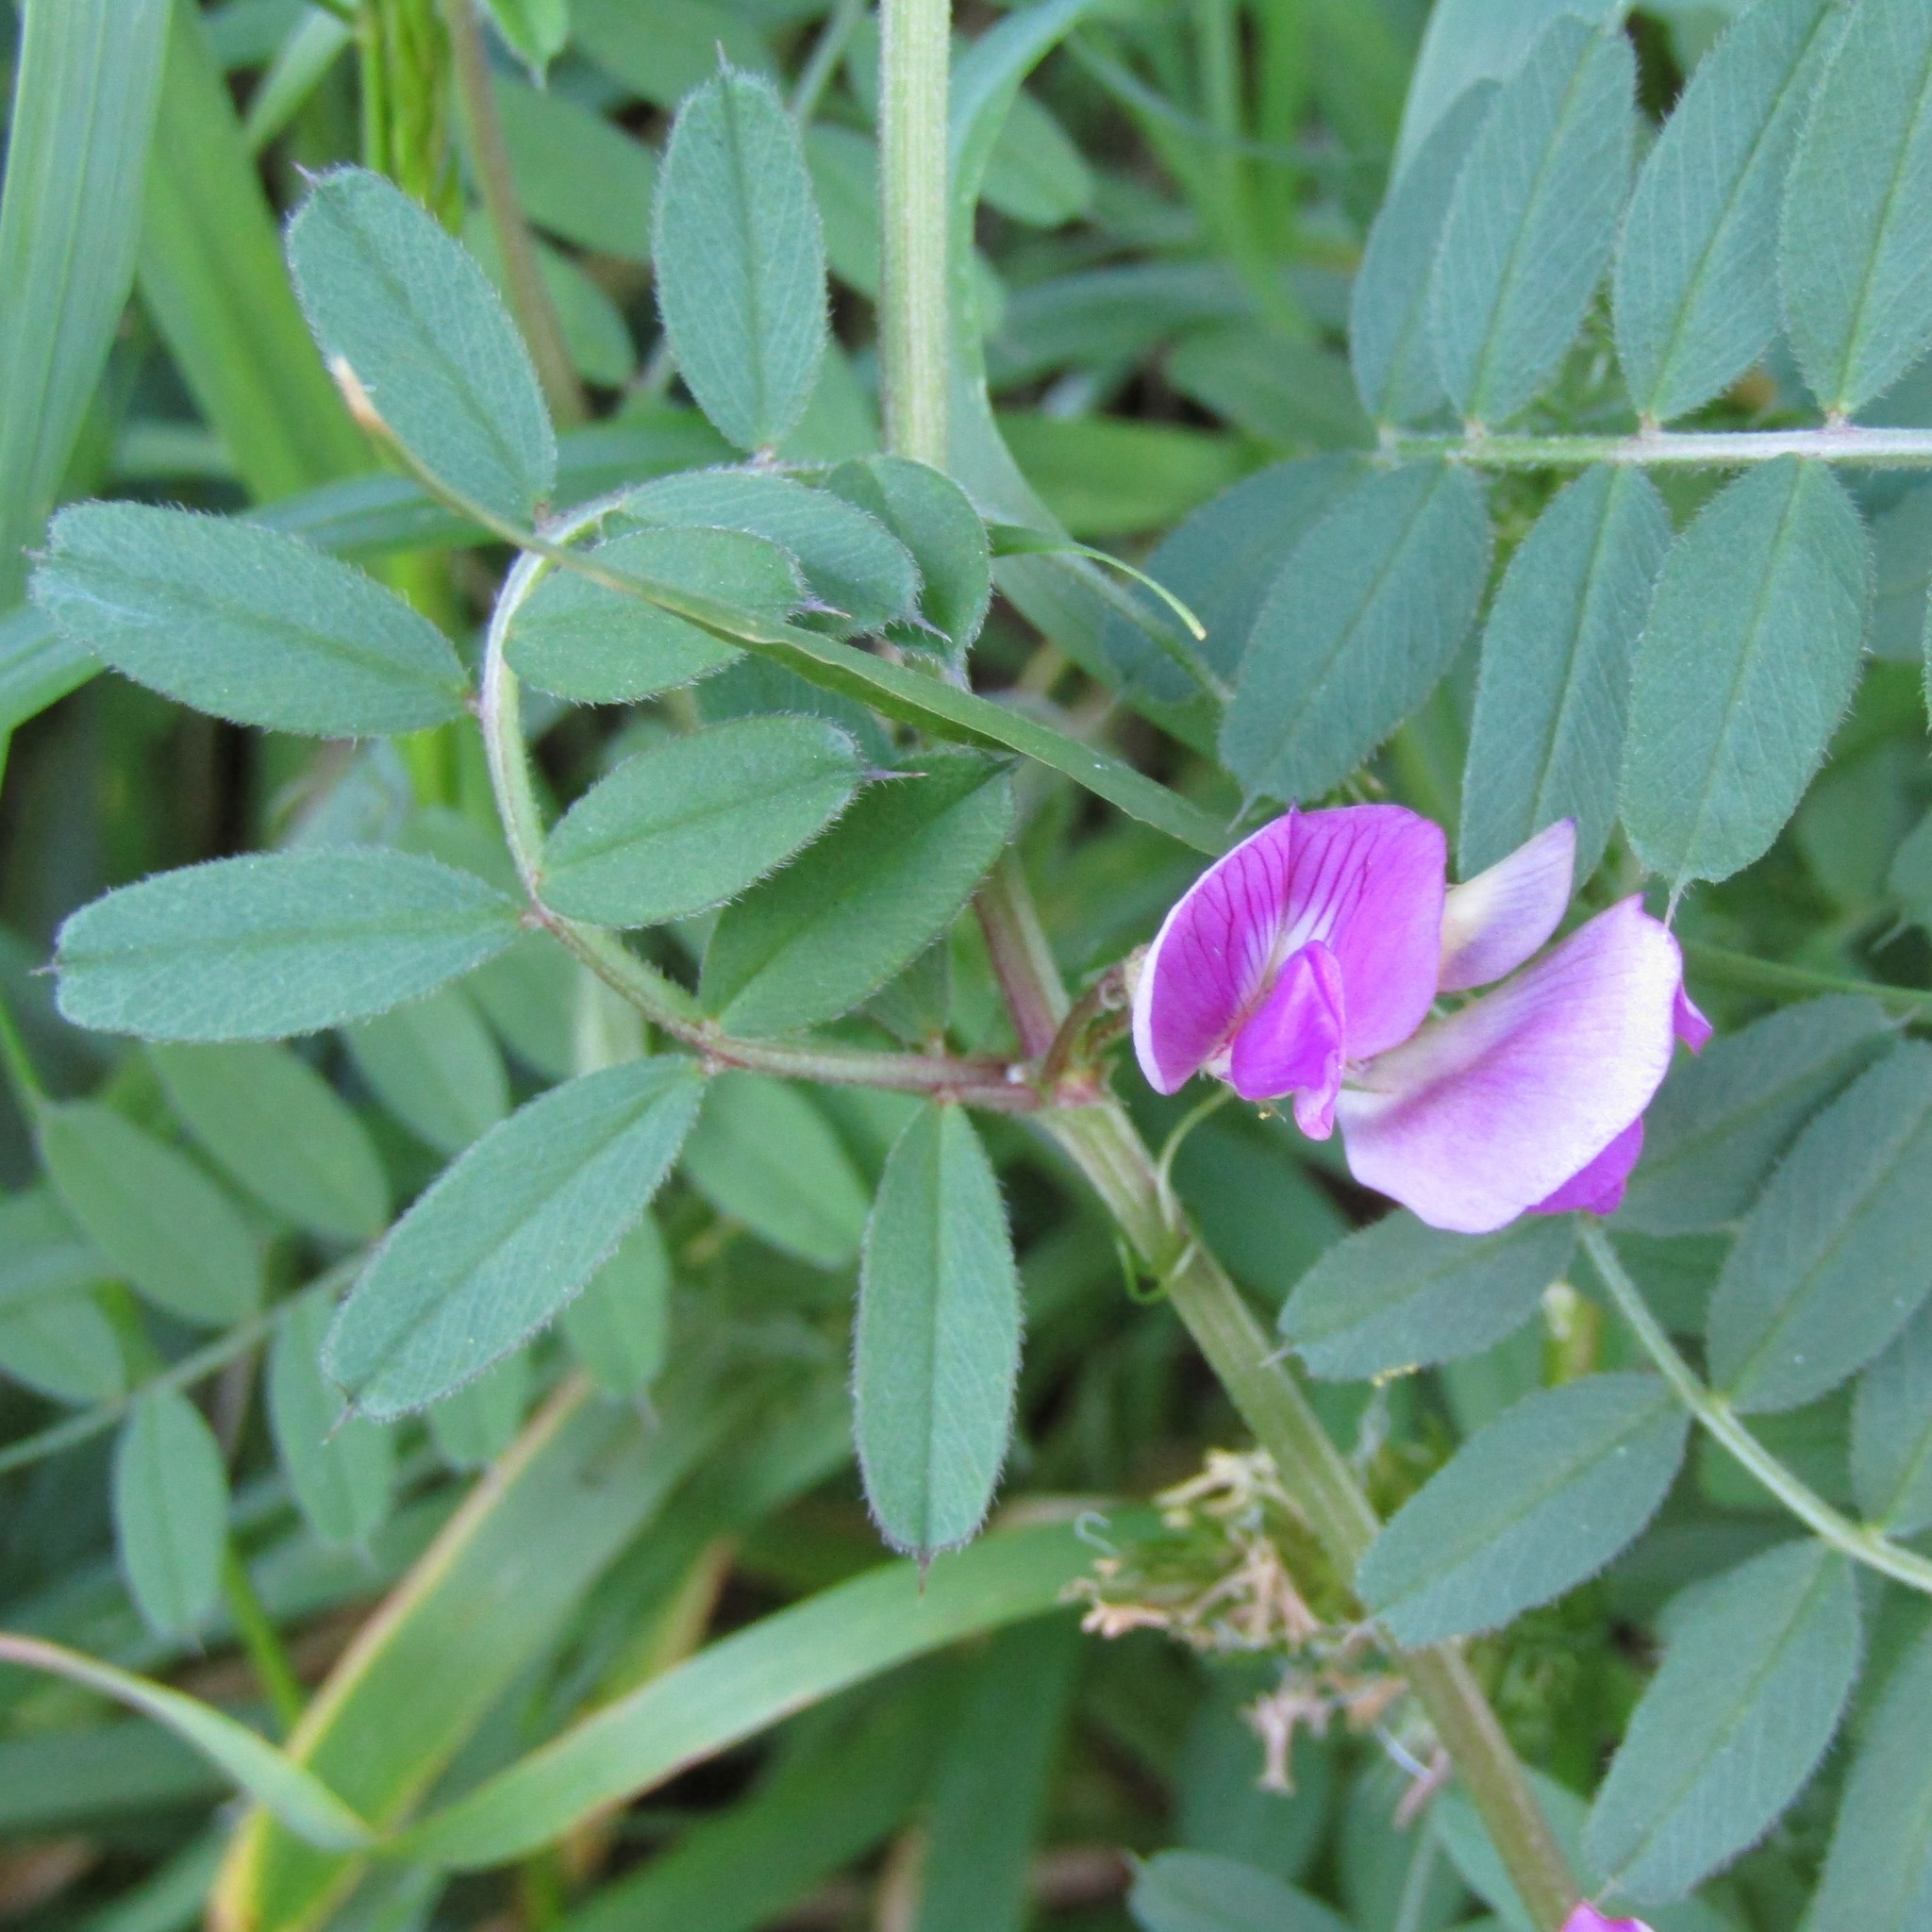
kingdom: Plantae
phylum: Tracheophyta
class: Magnoliopsida
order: Fabales
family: Fabaceae
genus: Vicia
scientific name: Vicia sativa
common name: Garden vetch
